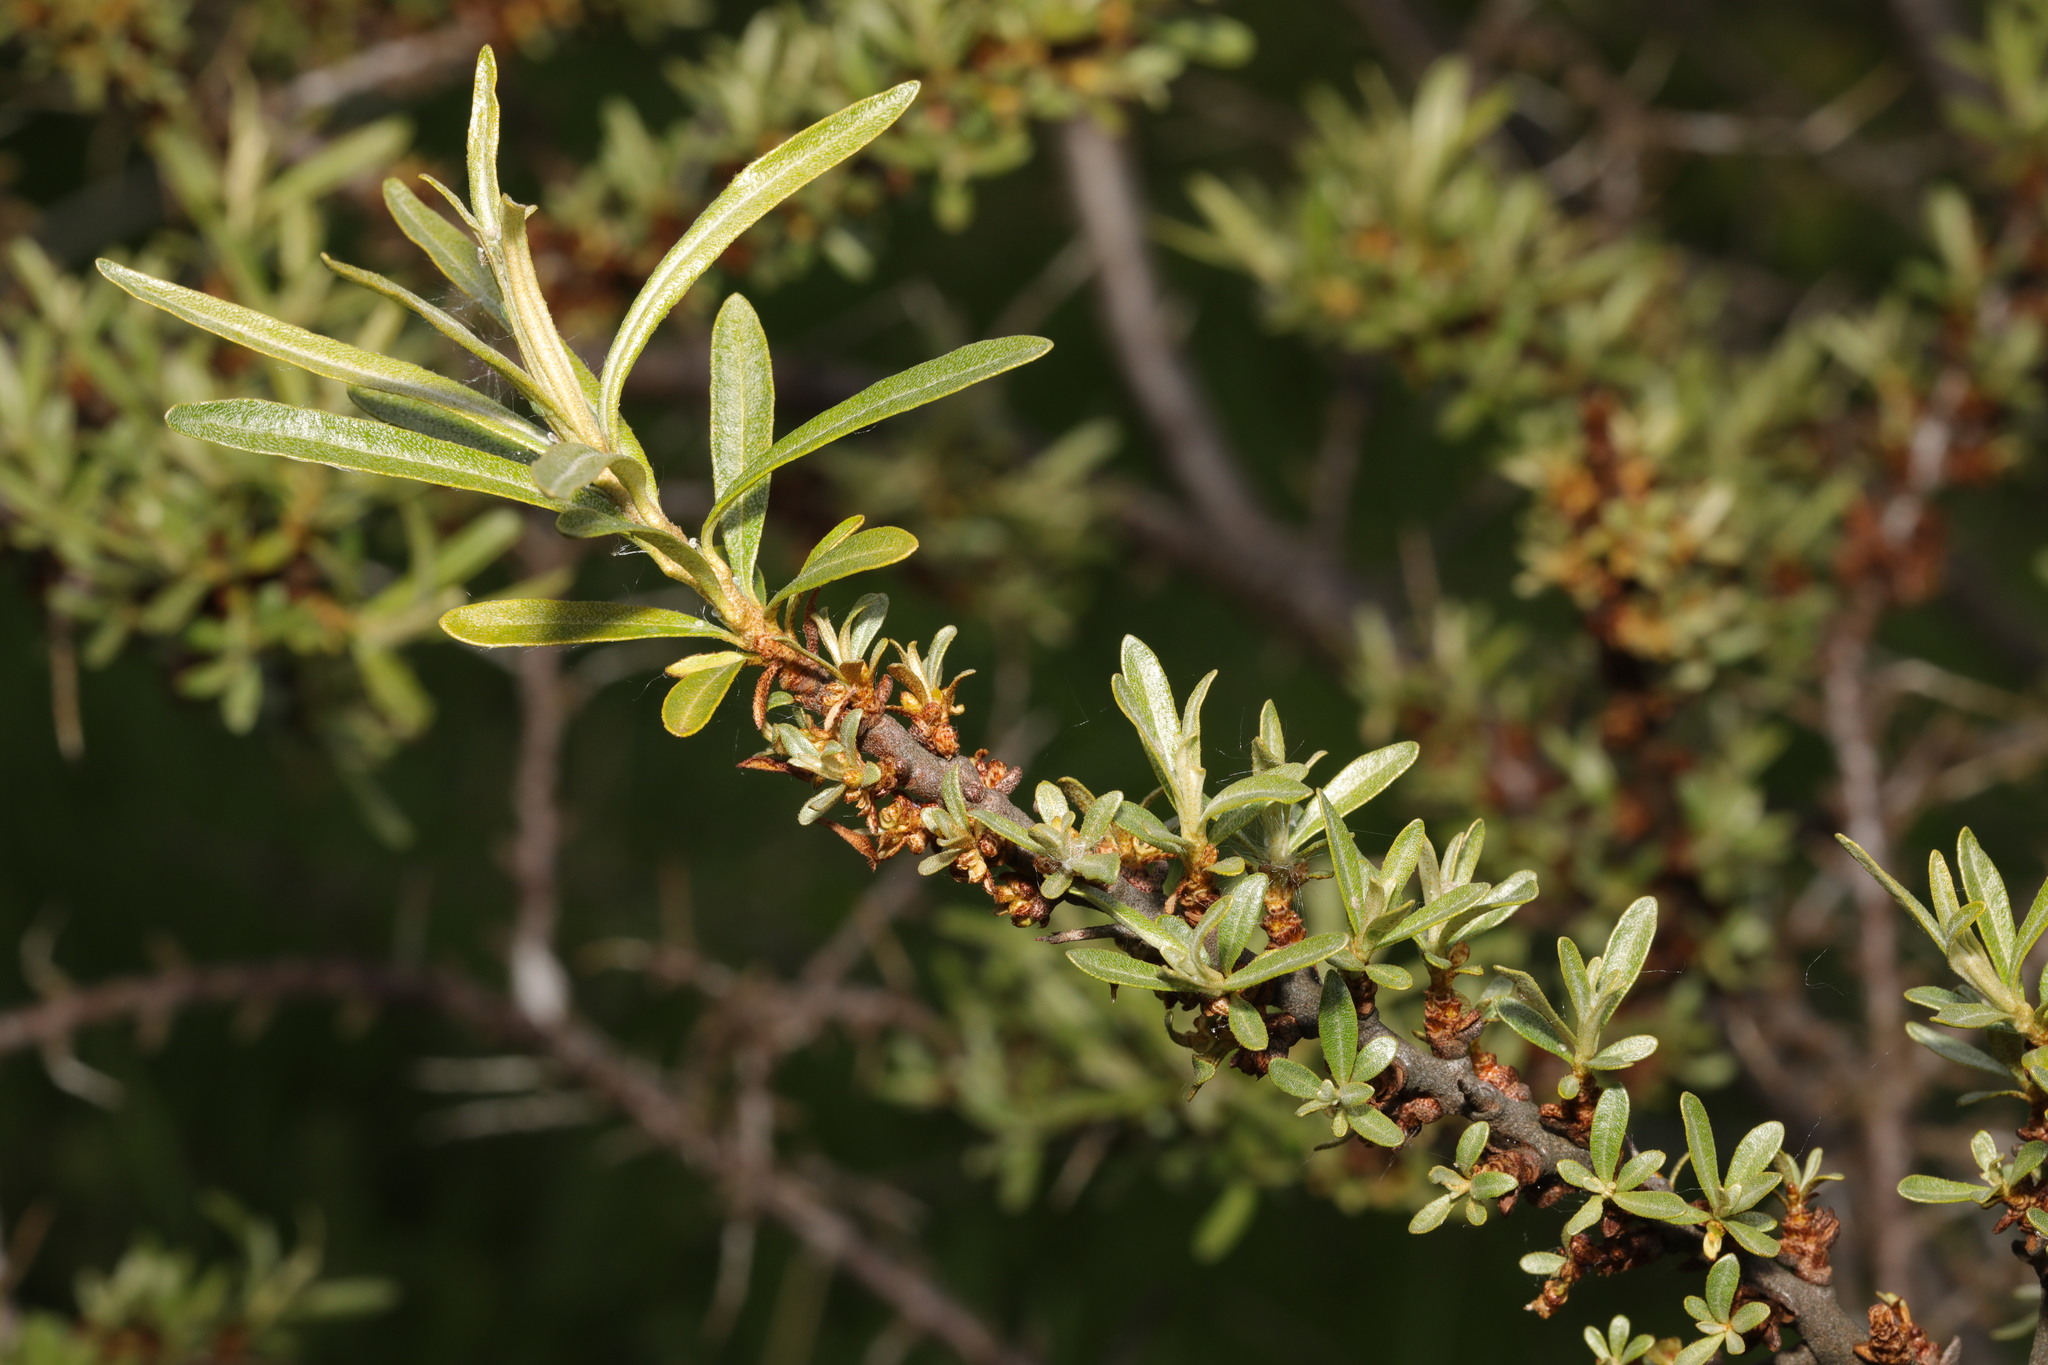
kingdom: Plantae
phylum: Tracheophyta
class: Magnoliopsida
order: Rosales
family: Elaeagnaceae
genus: Hippophae
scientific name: Hippophae rhamnoides
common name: Sea-buckthorn
